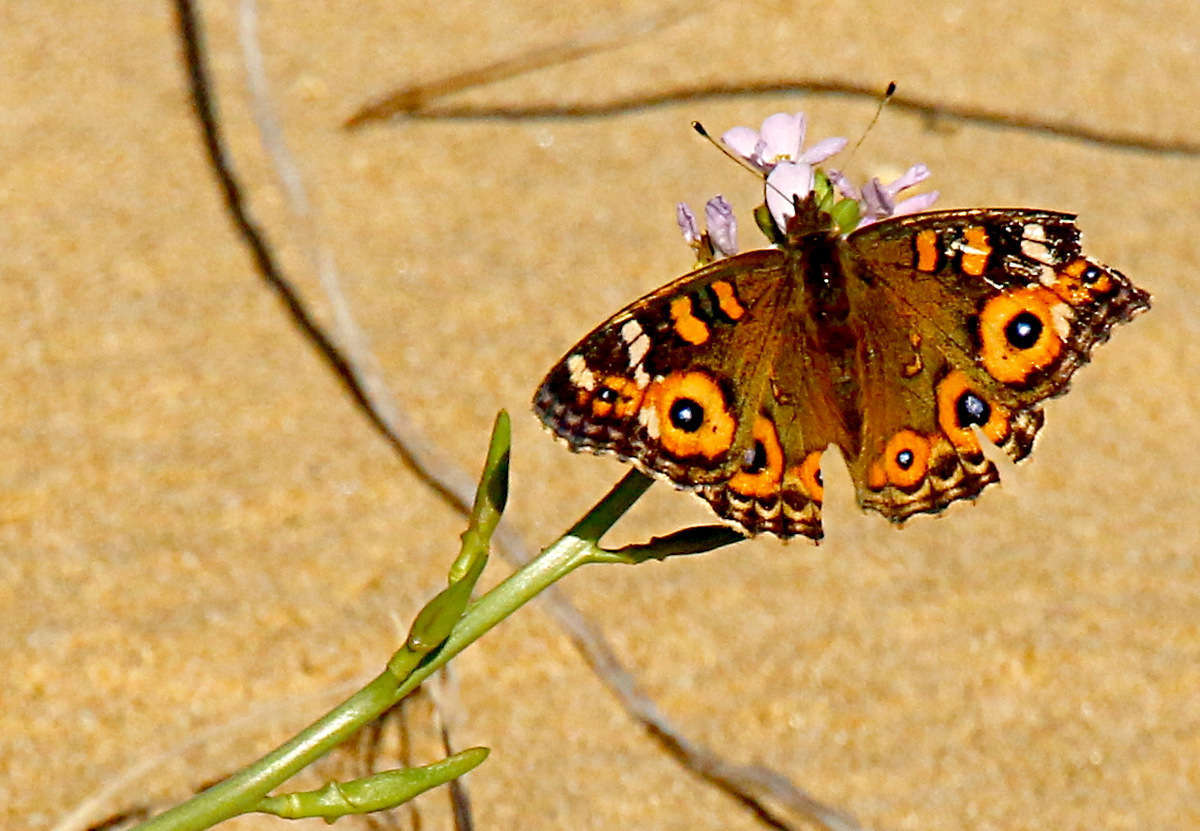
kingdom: Animalia
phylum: Arthropoda
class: Insecta
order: Lepidoptera
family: Nymphalidae
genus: Junonia
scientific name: Junonia villida
